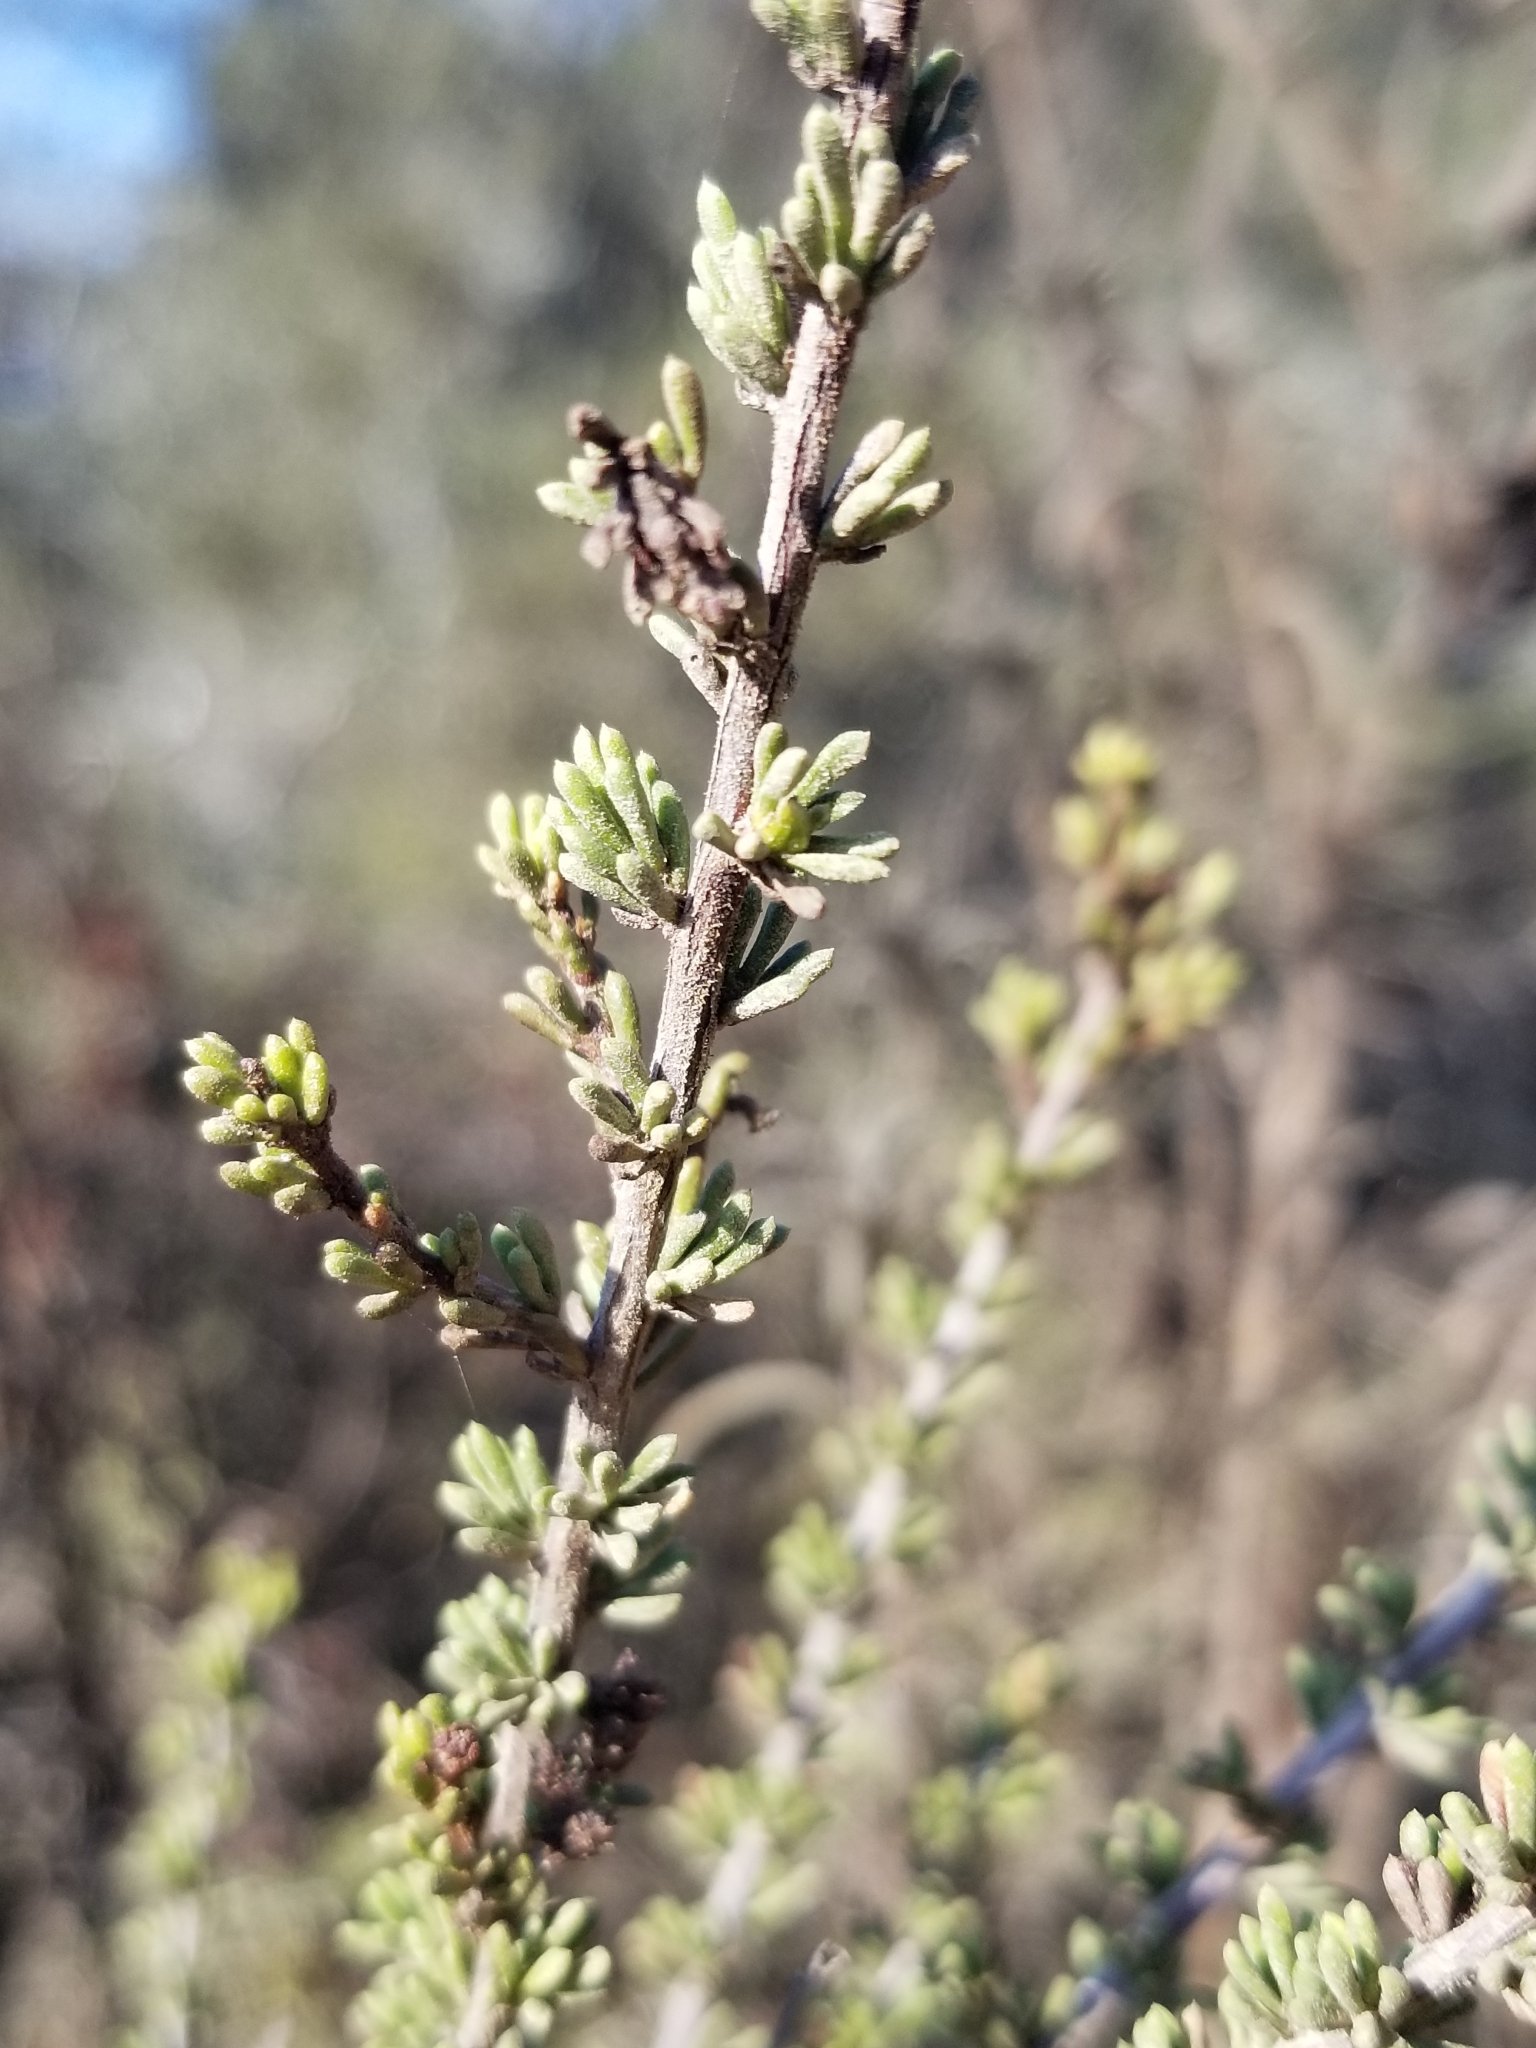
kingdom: Plantae
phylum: Tracheophyta
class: Magnoliopsida
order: Rosales
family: Rosaceae
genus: Adenostoma
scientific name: Adenostoma fasciculatum
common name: Chamise
